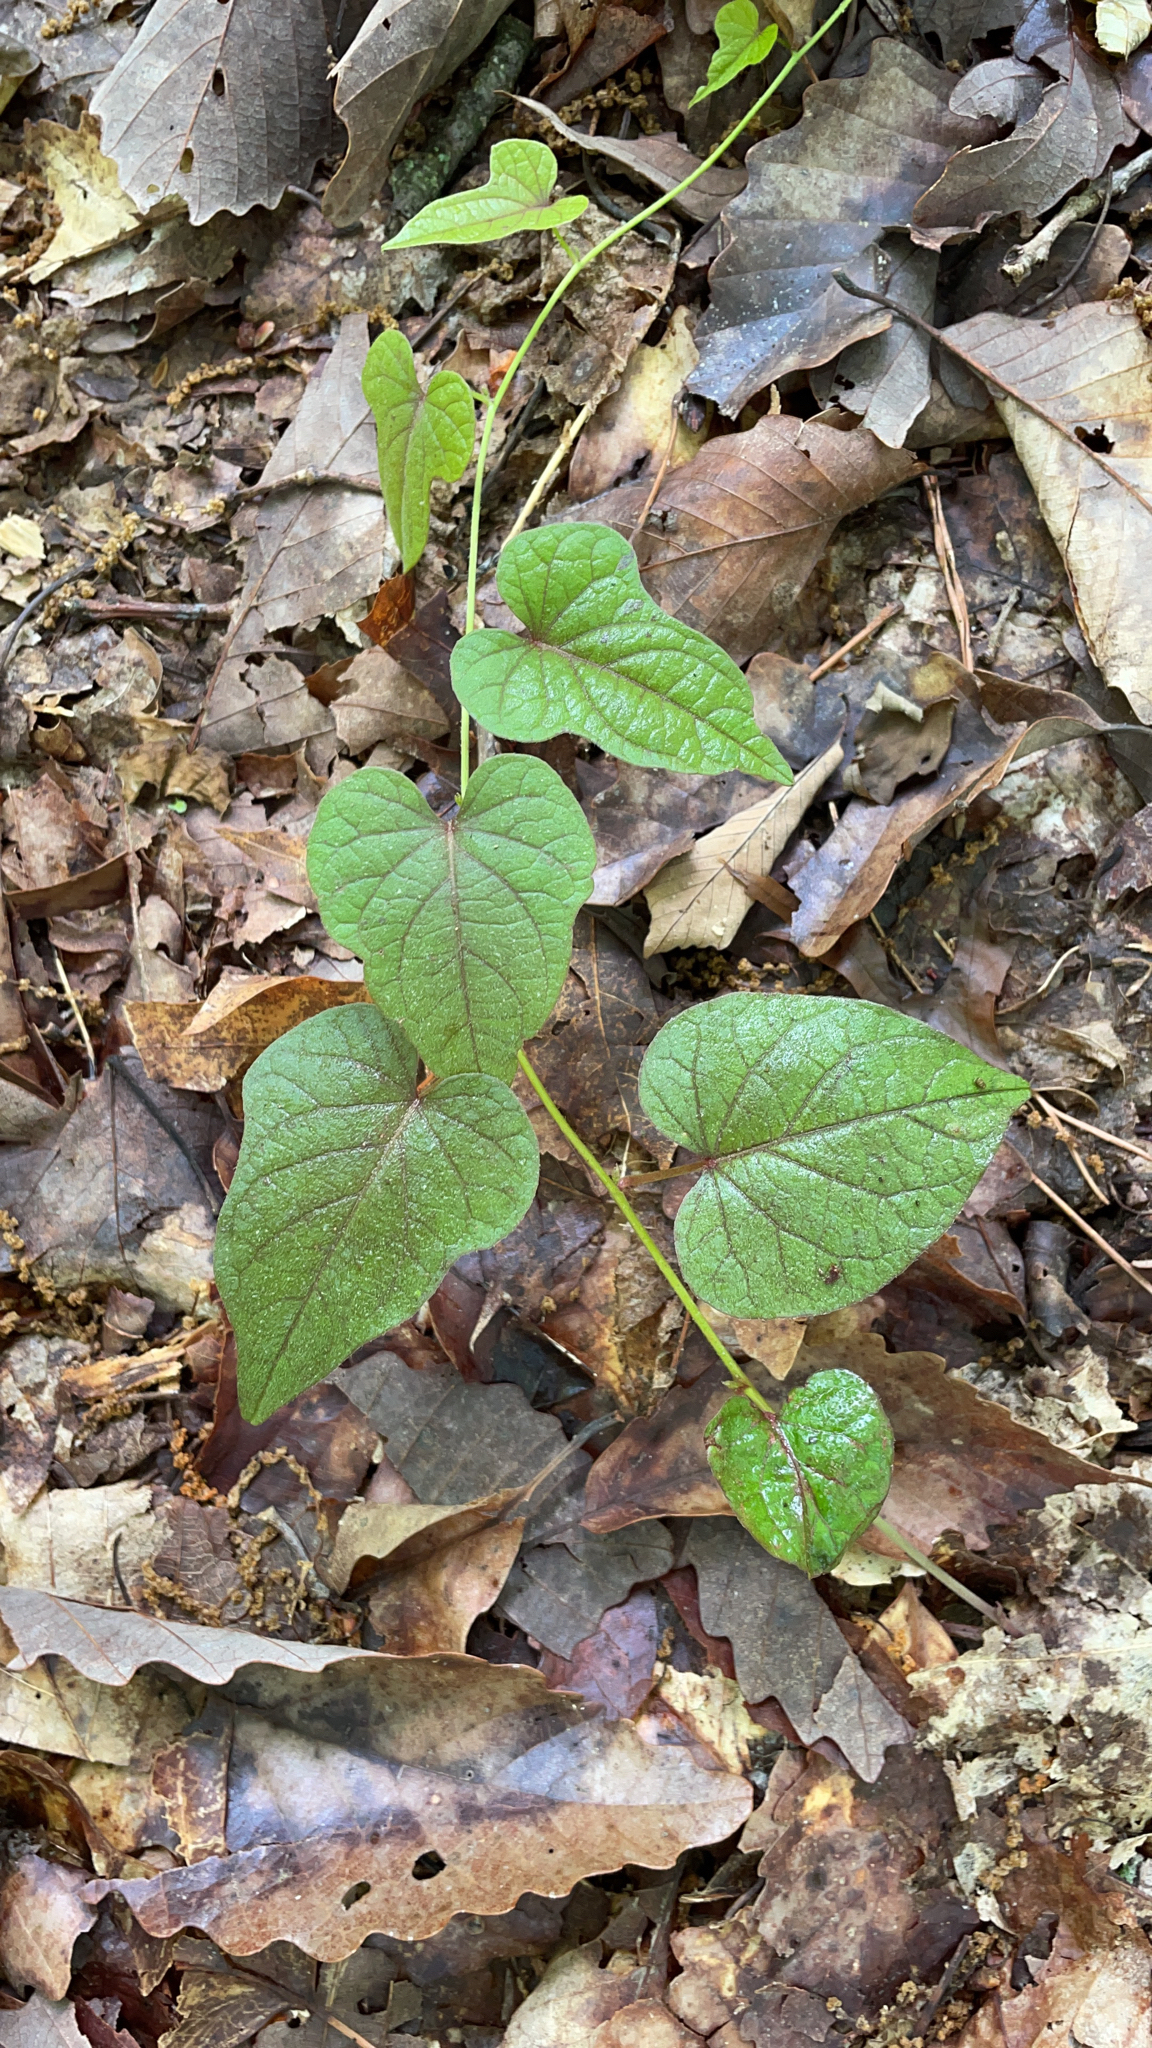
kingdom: Plantae
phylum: Tracheophyta
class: Magnoliopsida
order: Solanales
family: Convolvulaceae
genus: Ipomoea
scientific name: Ipomoea pandurata
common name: Man-of-the-earth
